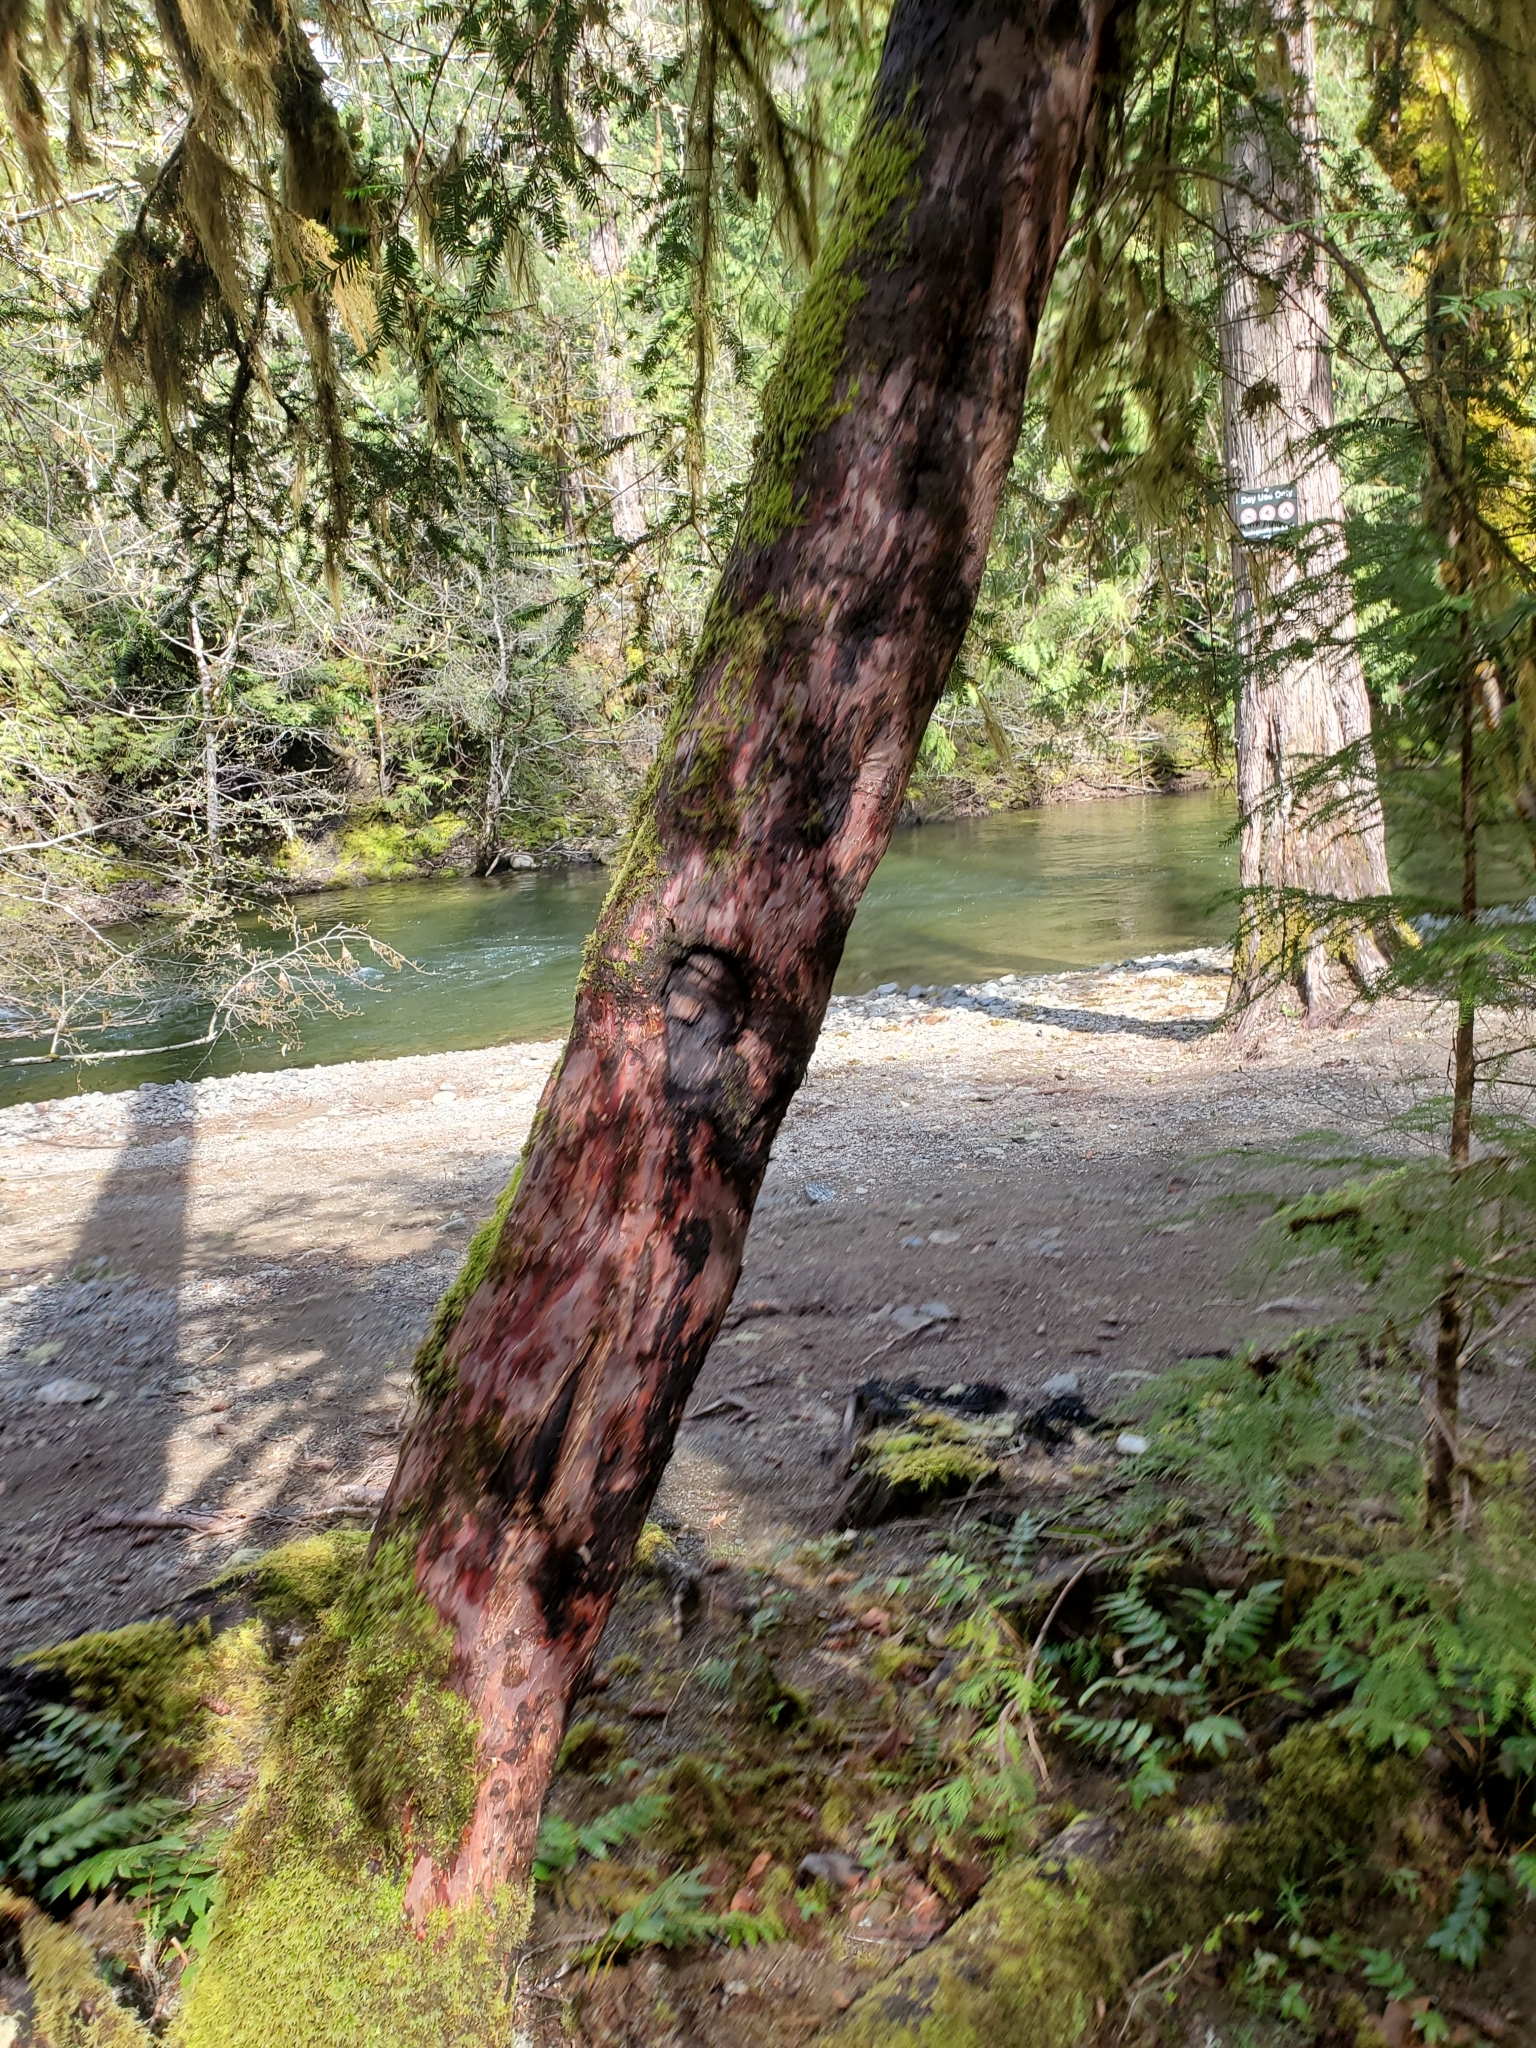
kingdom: Plantae
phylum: Tracheophyta
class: Pinopsida
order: Pinales
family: Taxaceae
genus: Taxus
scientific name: Taxus brevifolia
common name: Pacific yew
